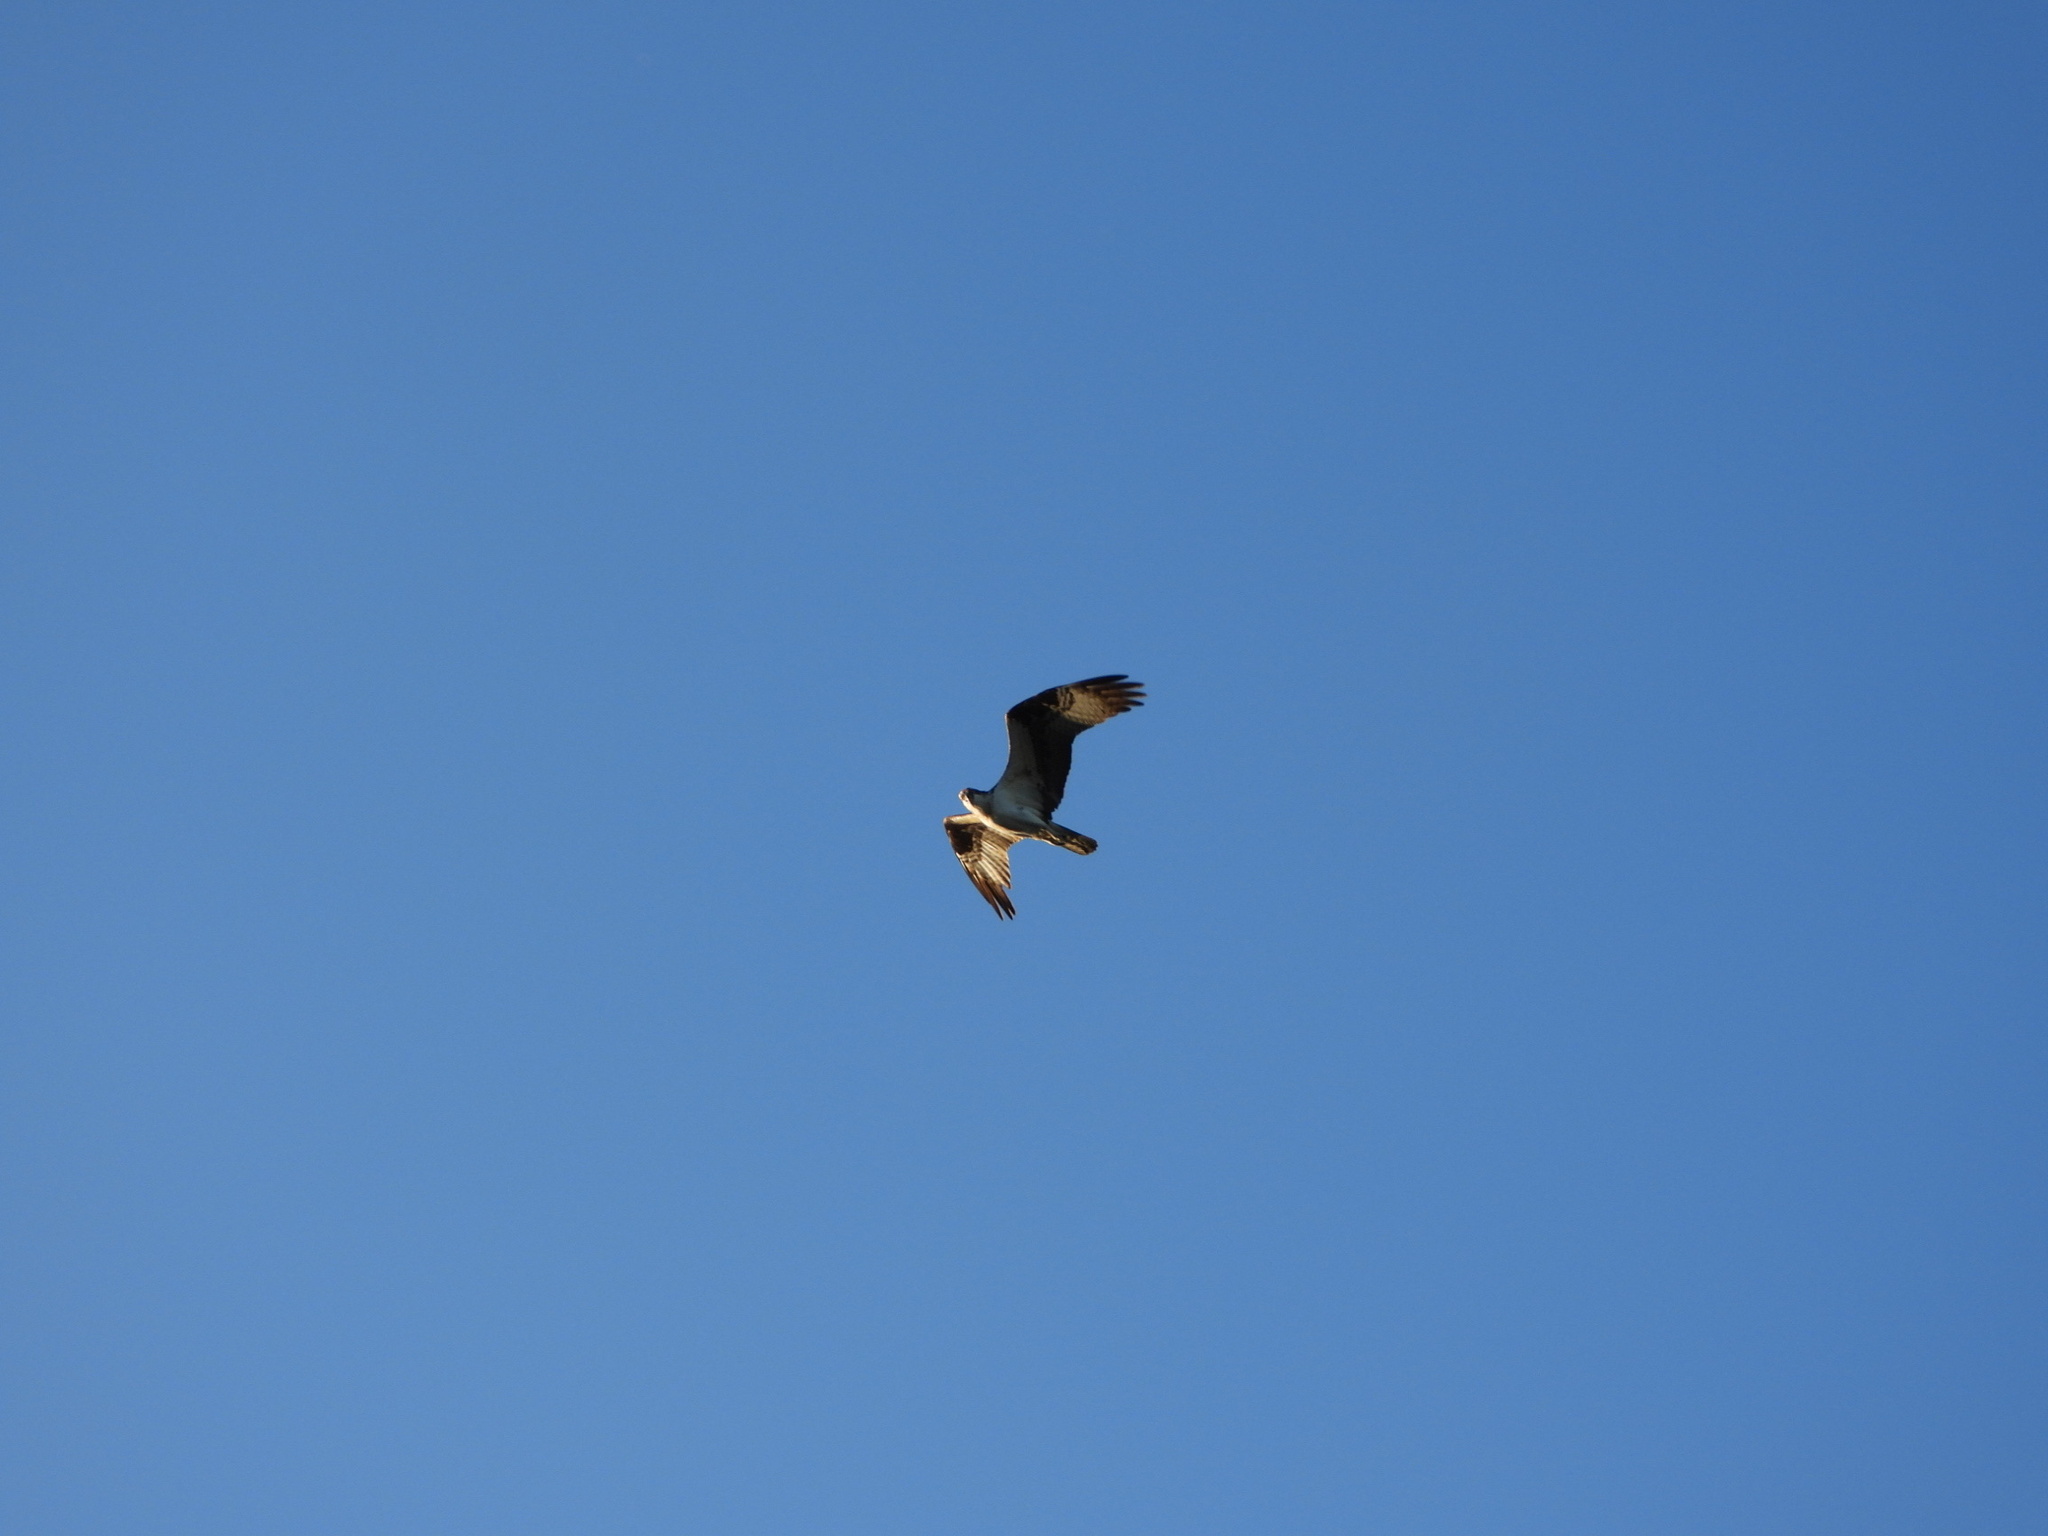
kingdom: Animalia
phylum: Chordata
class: Aves
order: Accipitriformes
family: Pandionidae
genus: Pandion
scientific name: Pandion haliaetus
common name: Osprey
